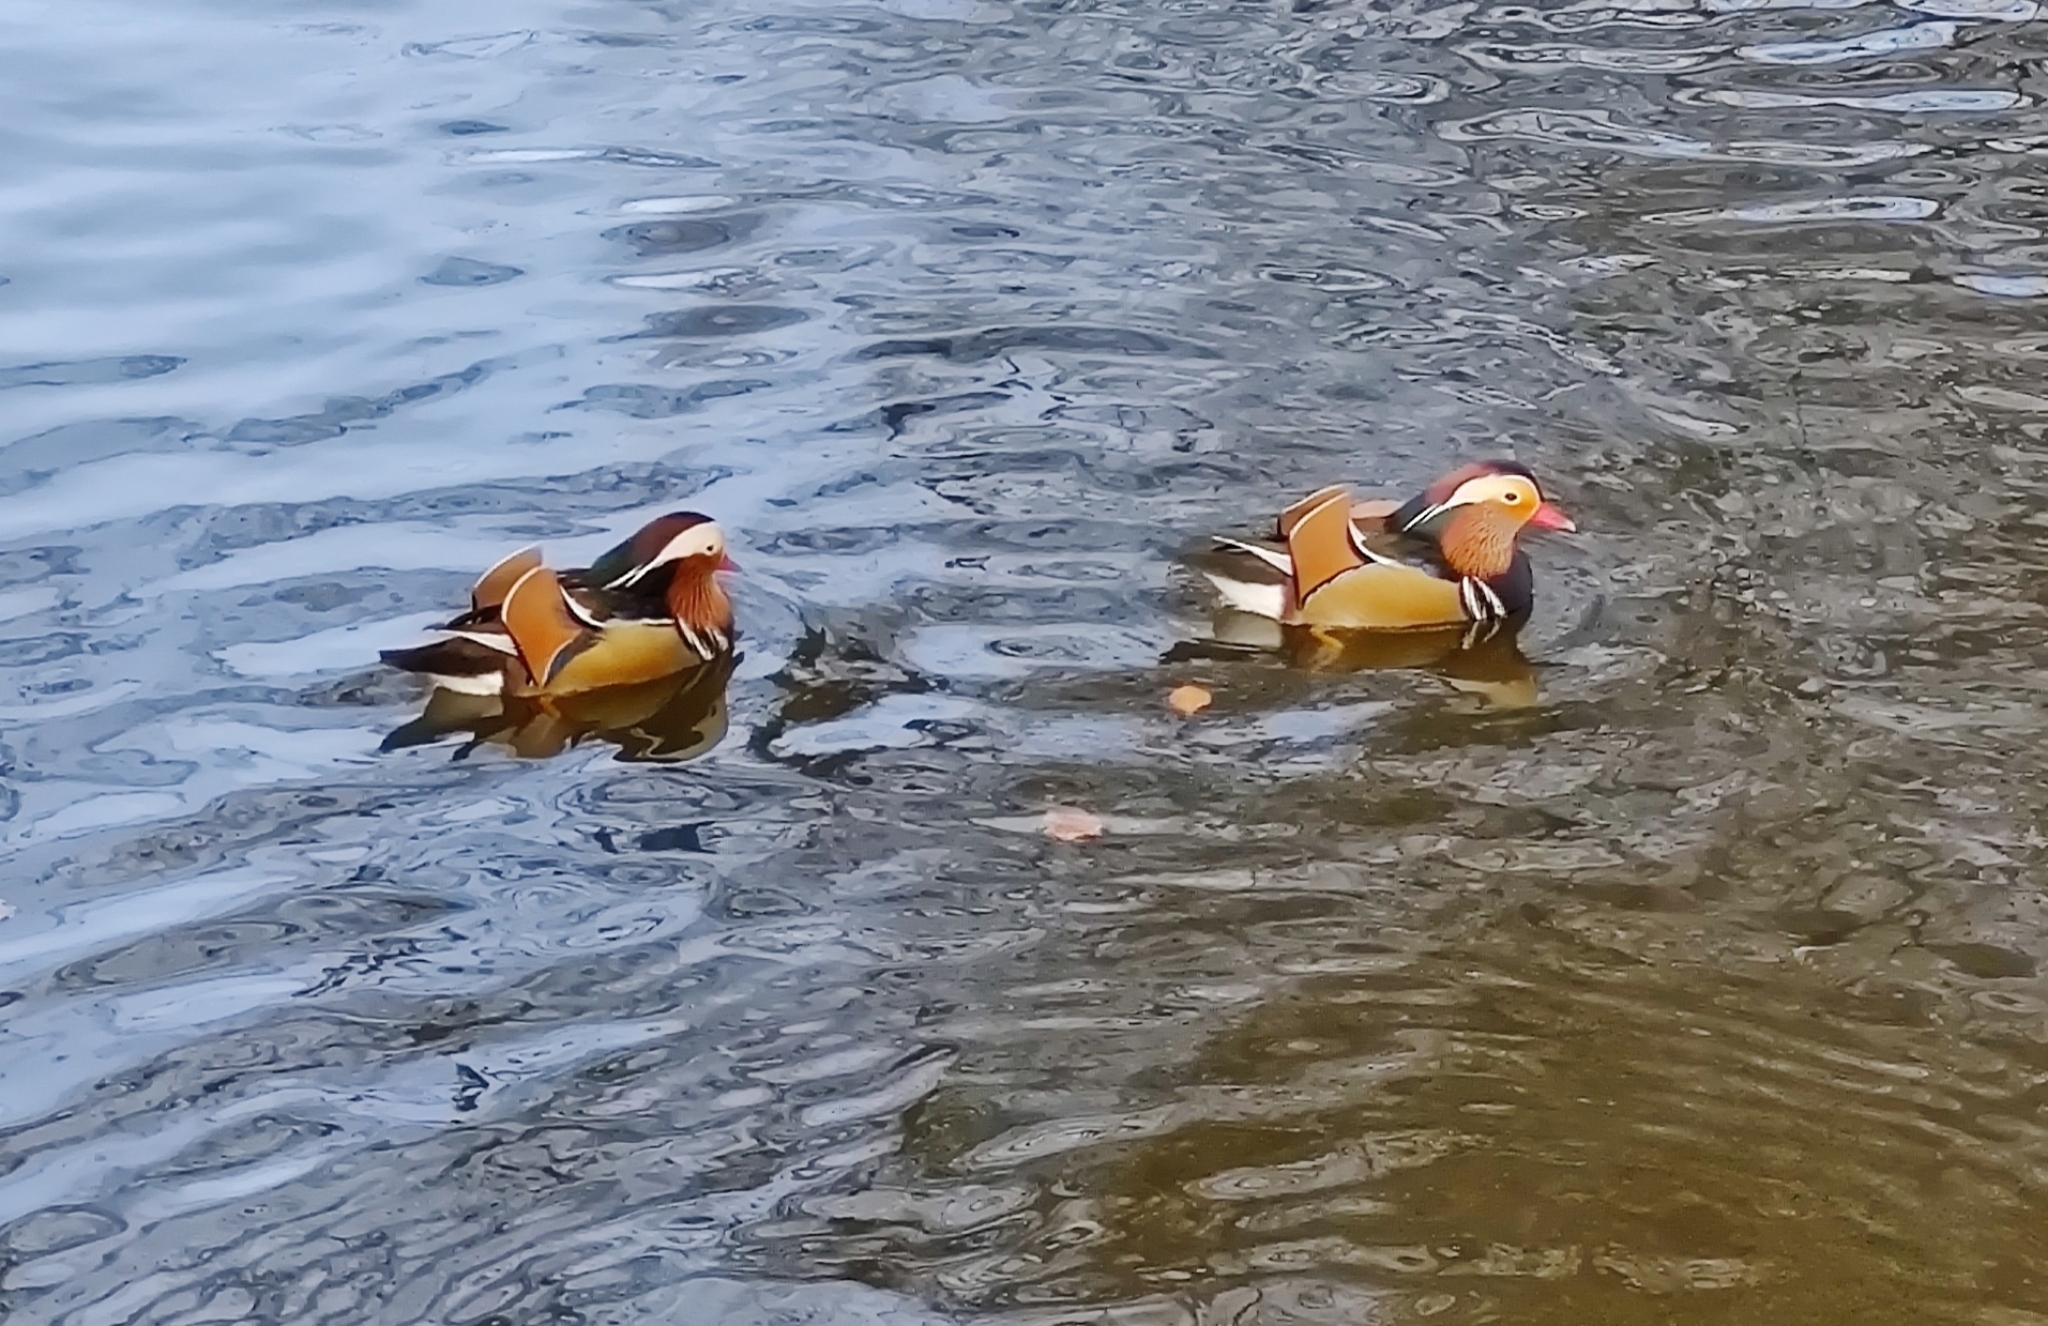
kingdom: Animalia
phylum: Chordata
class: Aves
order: Anseriformes
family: Anatidae
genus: Aix
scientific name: Aix galericulata
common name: Mandarin duck
